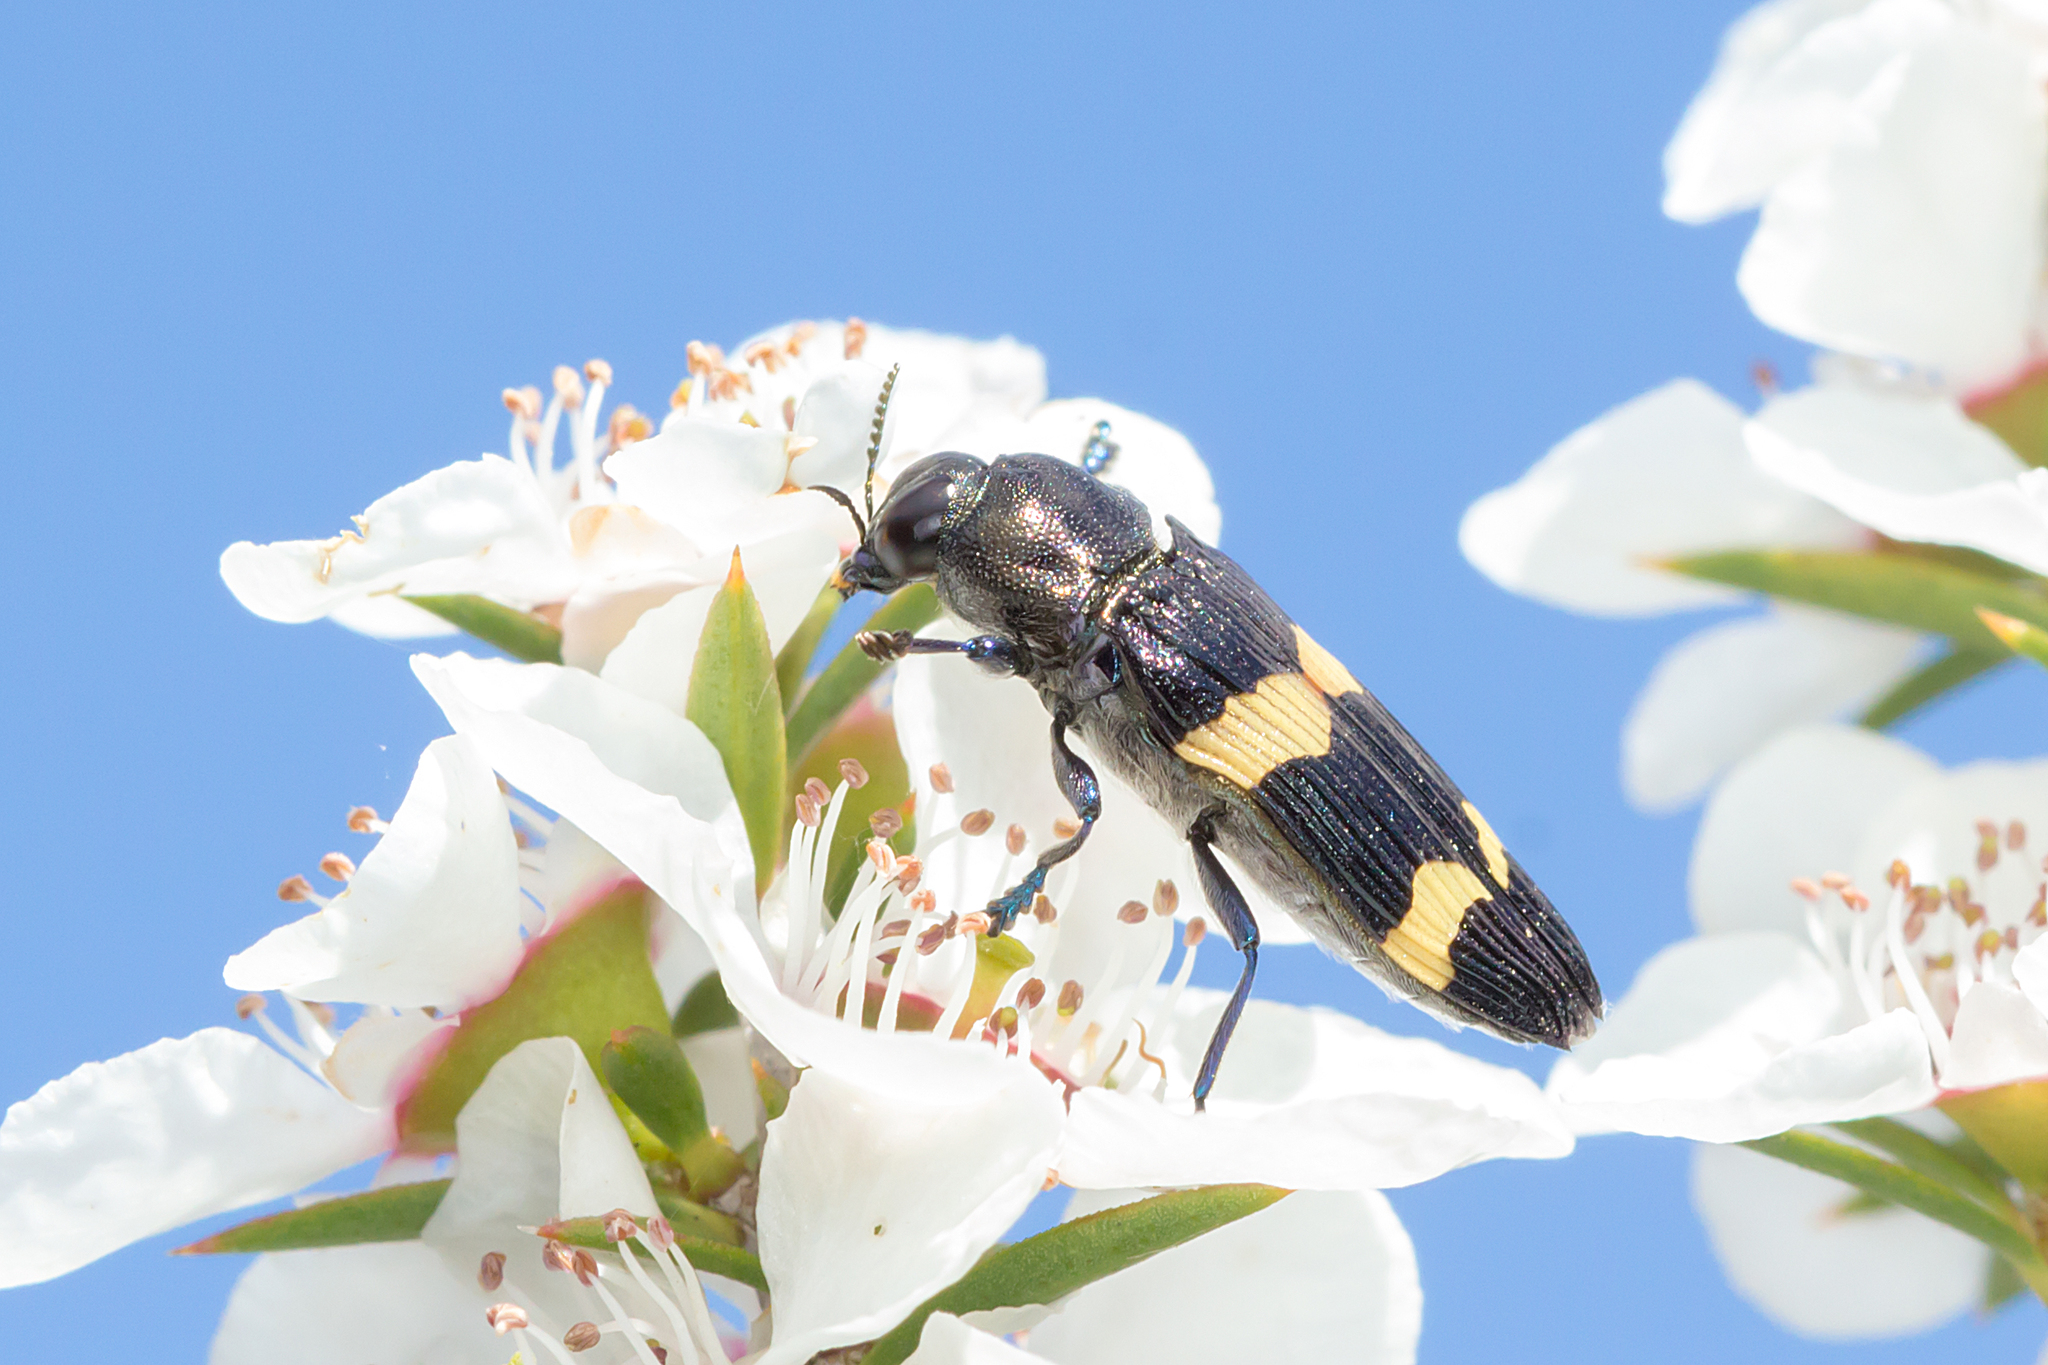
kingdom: Animalia
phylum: Arthropoda
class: Insecta
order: Coleoptera
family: Buprestidae
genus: Castiarina
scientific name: Castiarina bifasciata
